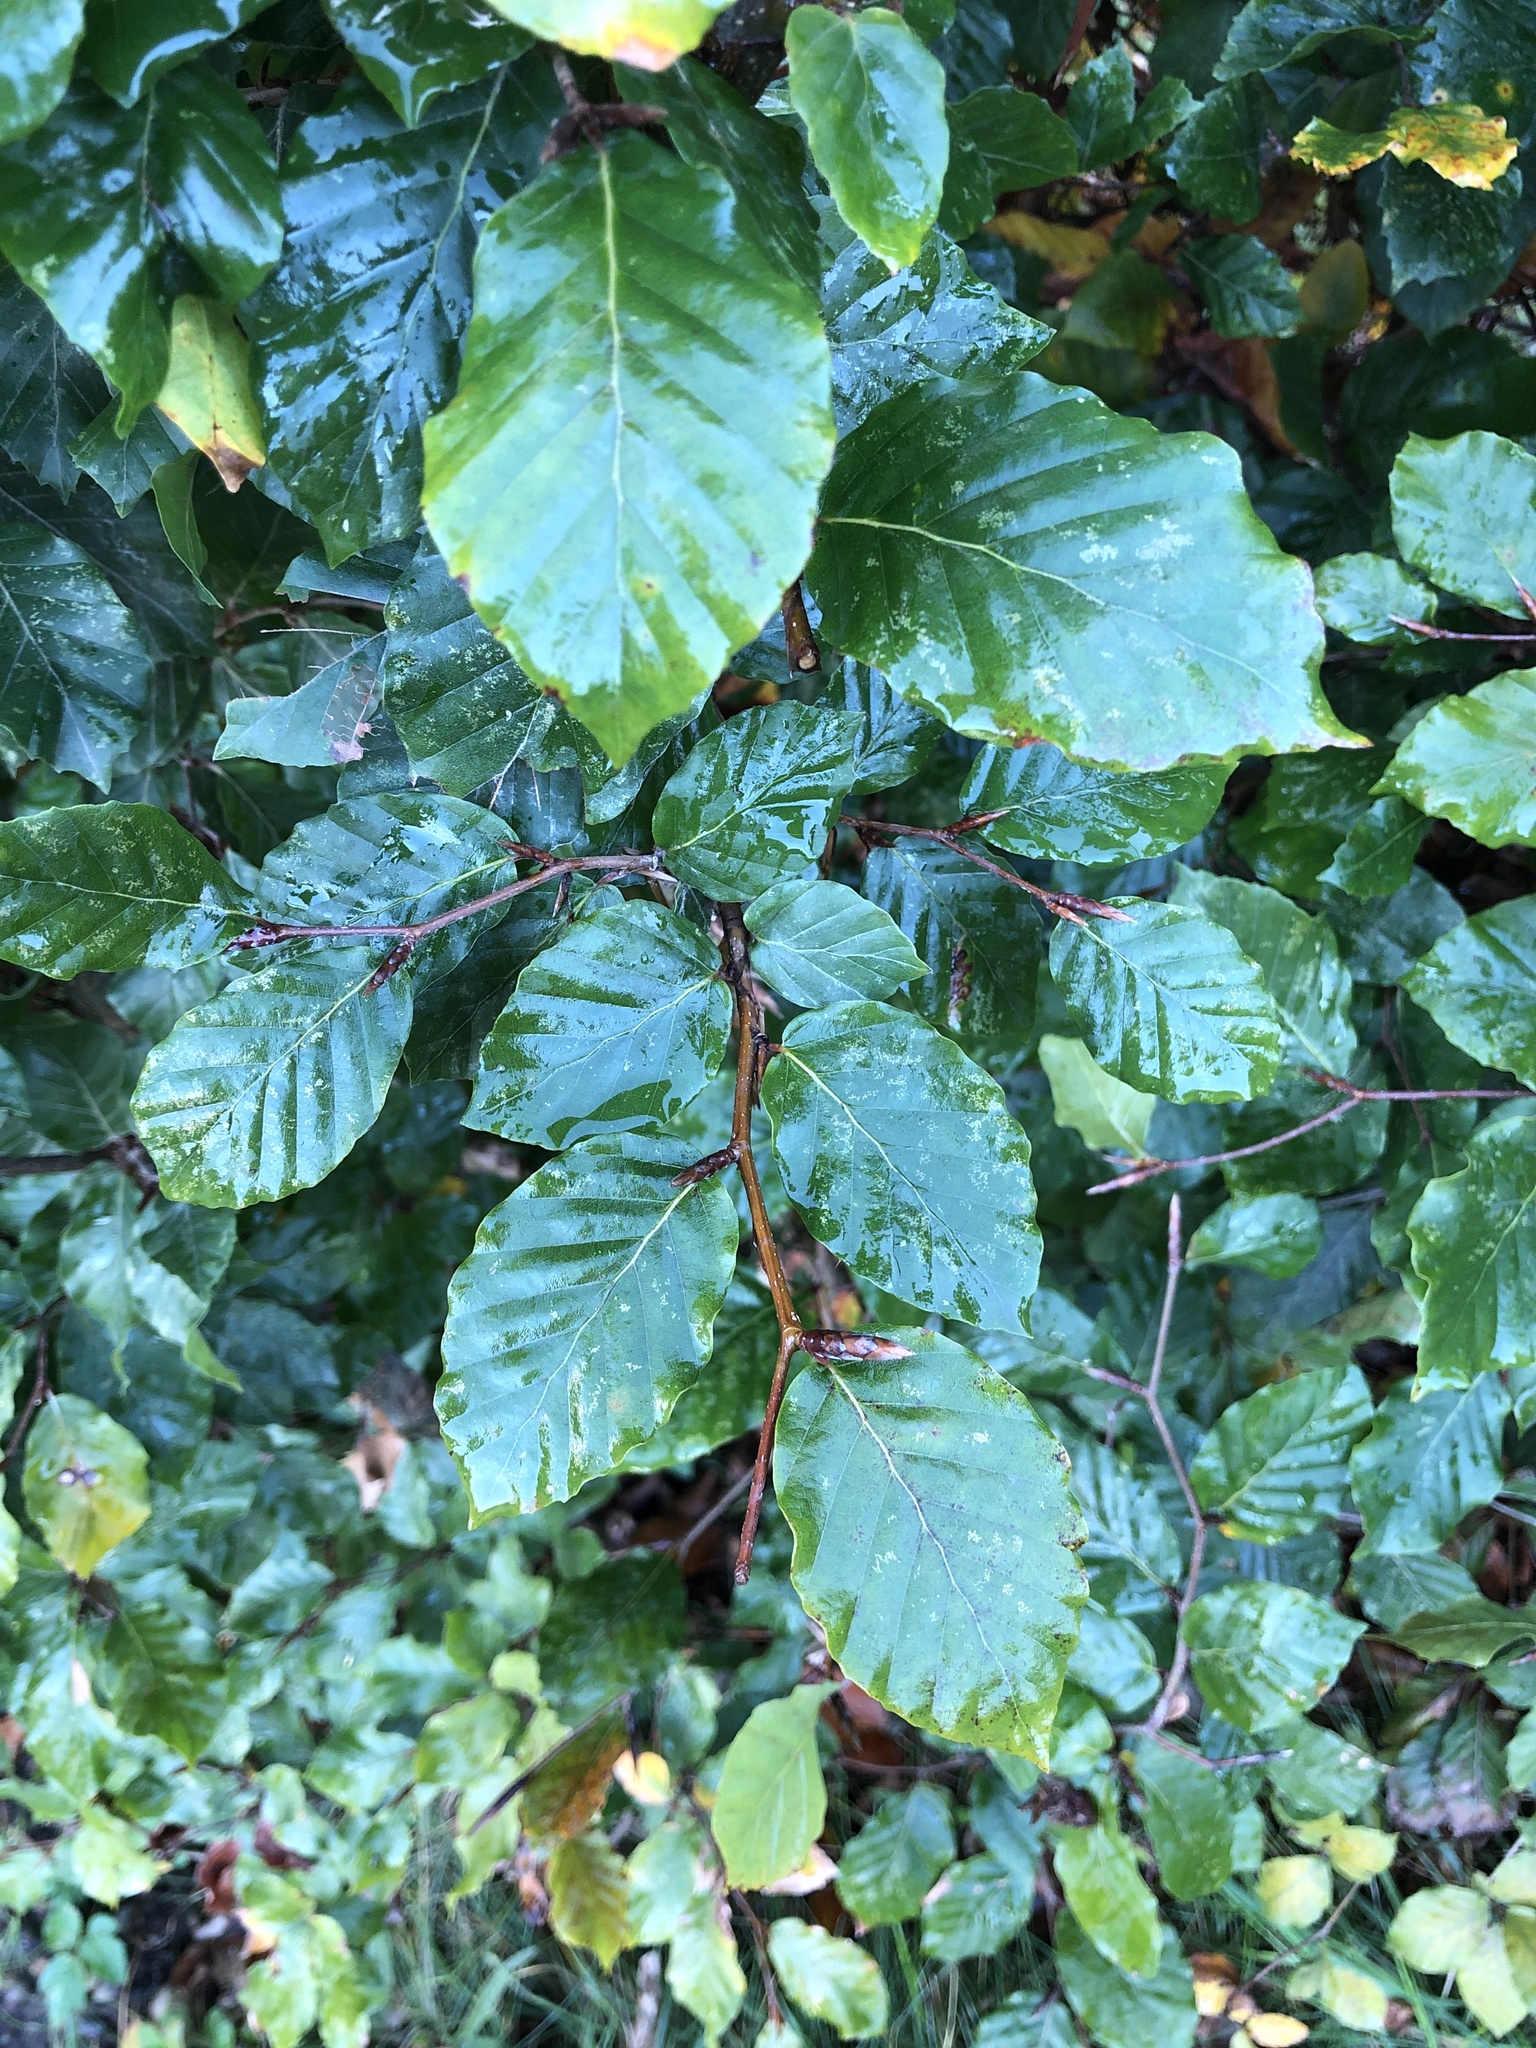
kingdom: Plantae
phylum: Tracheophyta
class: Magnoliopsida
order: Fagales
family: Fagaceae
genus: Fagus
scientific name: Fagus sylvatica
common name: Beech
